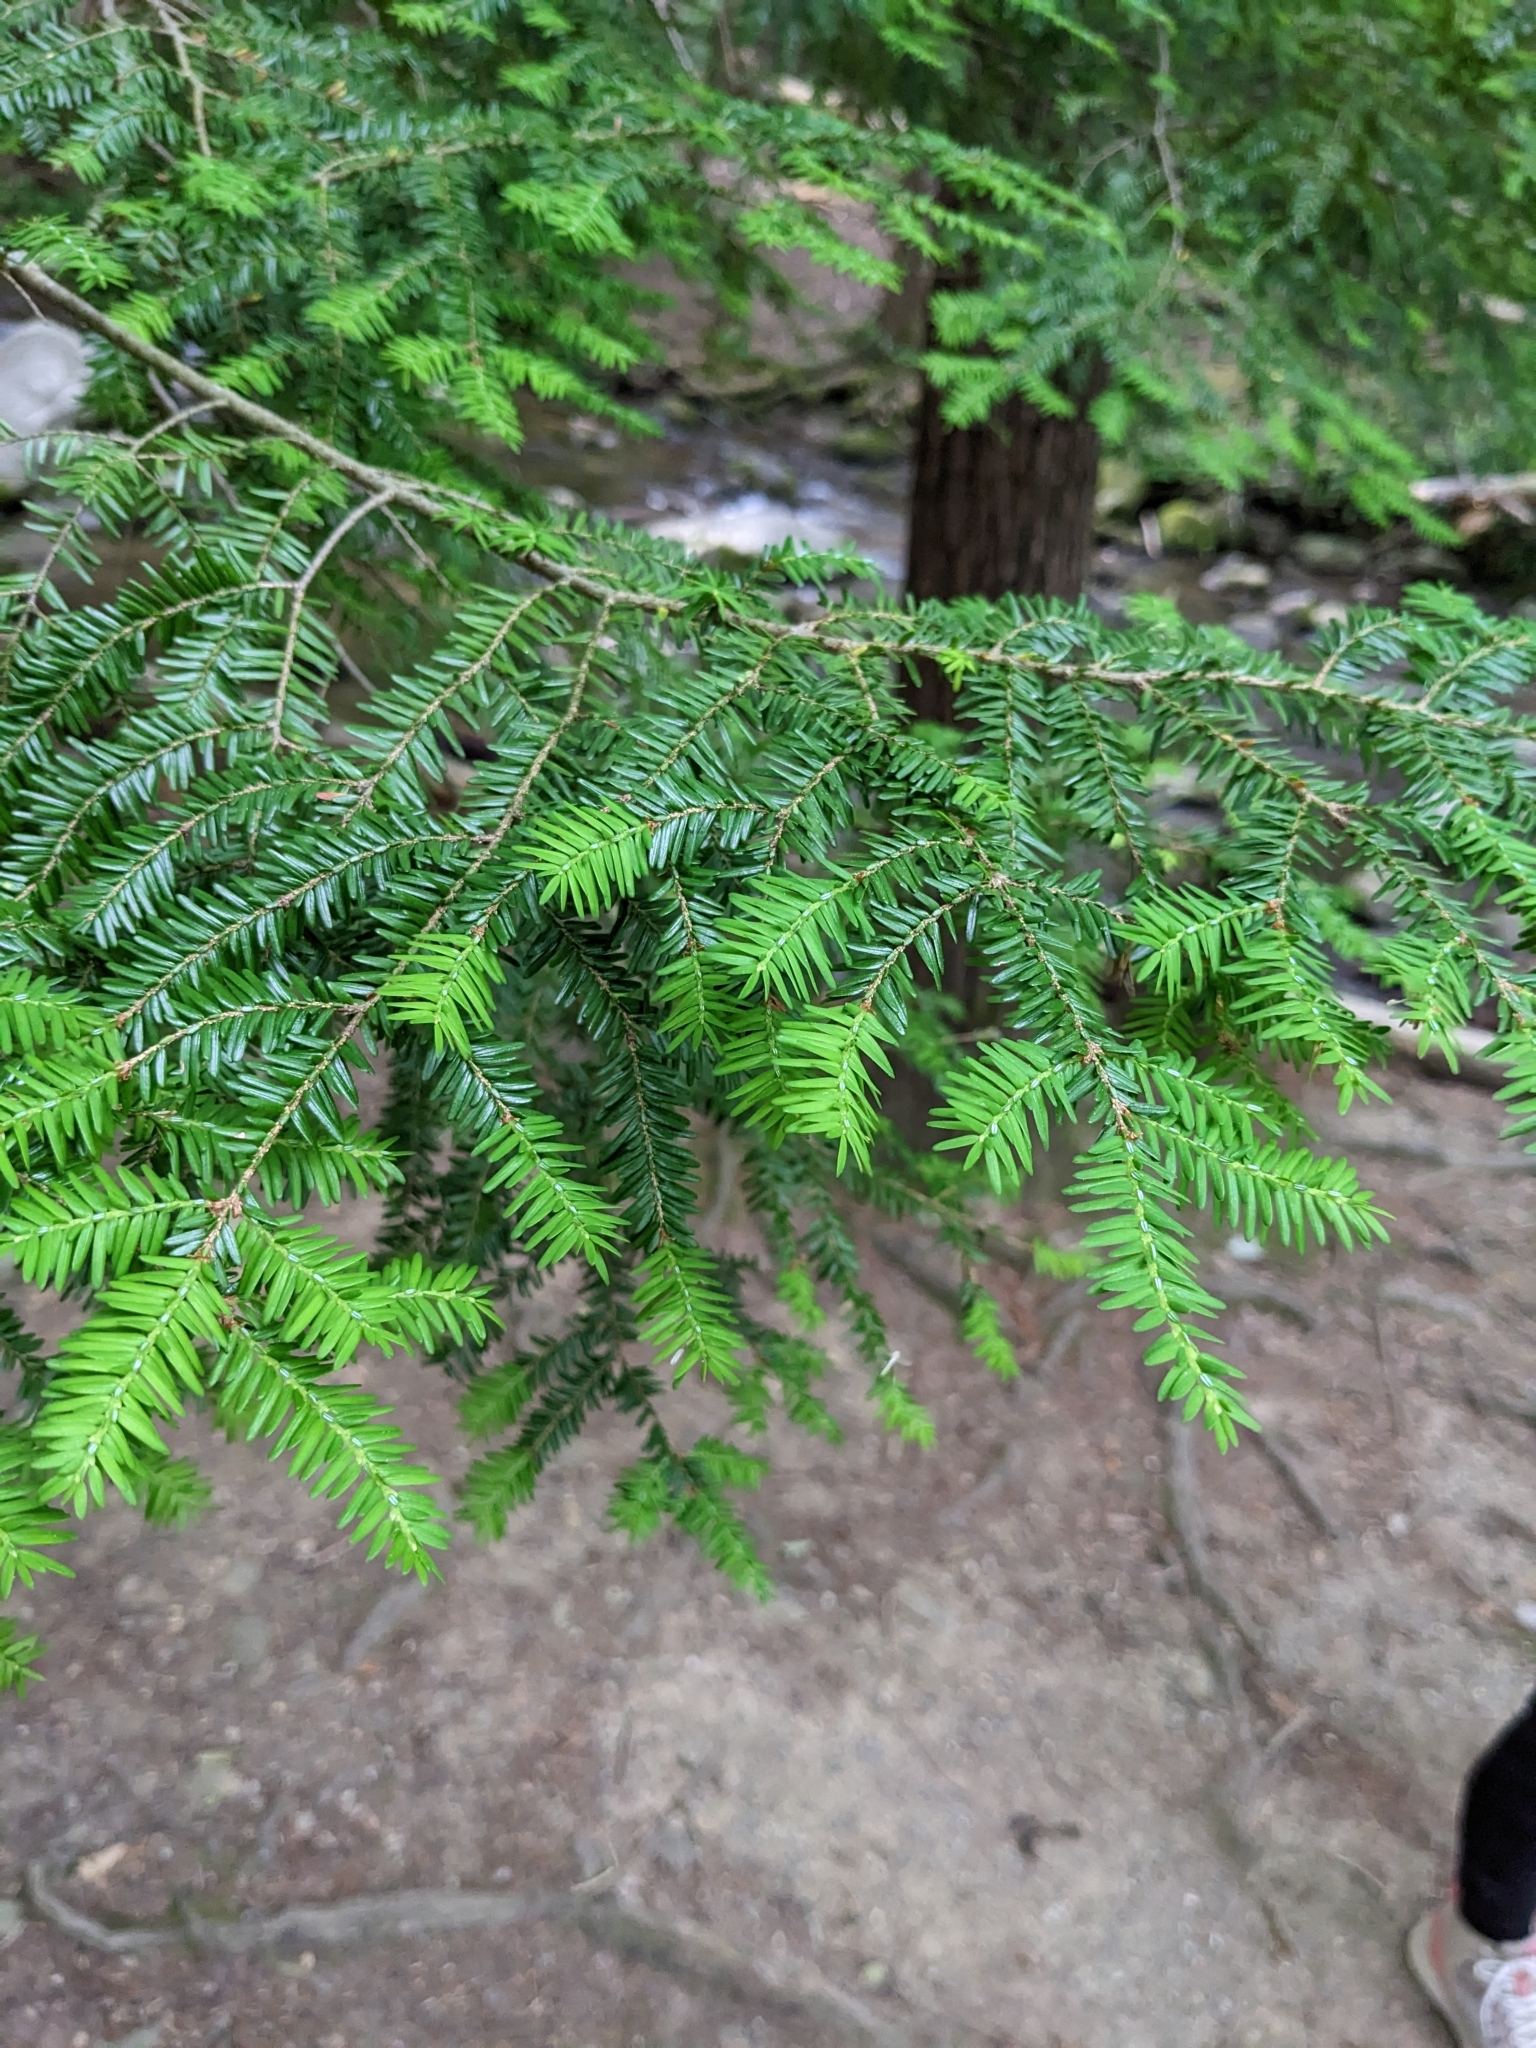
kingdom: Plantae
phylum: Tracheophyta
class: Pinopsida
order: Pinales
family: Pinaceae
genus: Tsuga
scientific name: Tsuga canadensis
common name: Eastern hemlock
